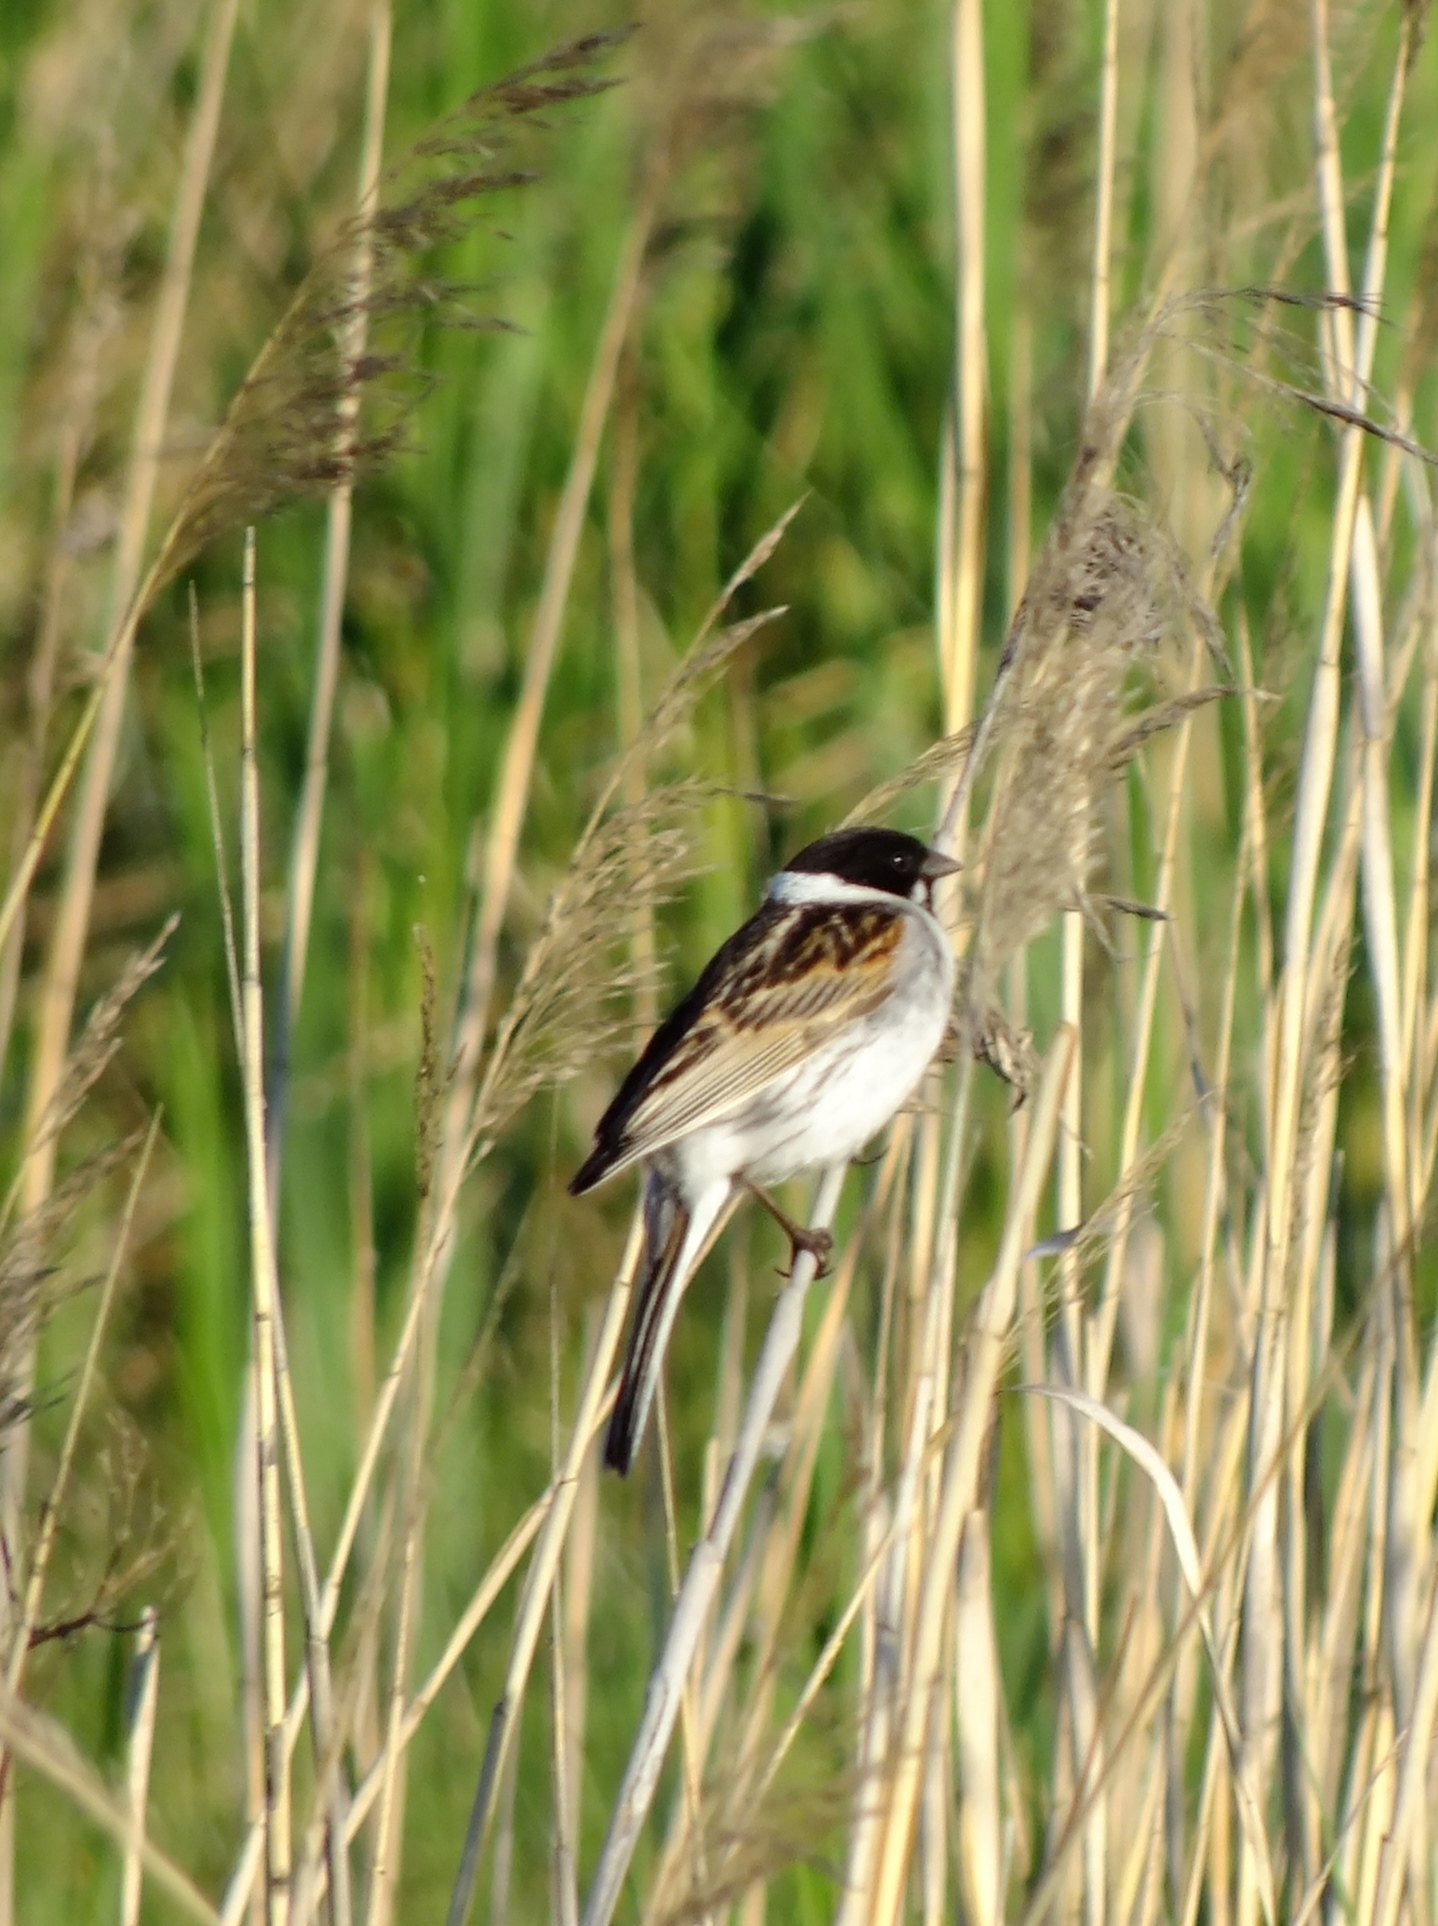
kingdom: Animalia
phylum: Chordata
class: Aves
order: Passeriformes
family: Emberizidae
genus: Emberiza
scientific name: Emberiza schoeniclus
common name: Reed bunting
